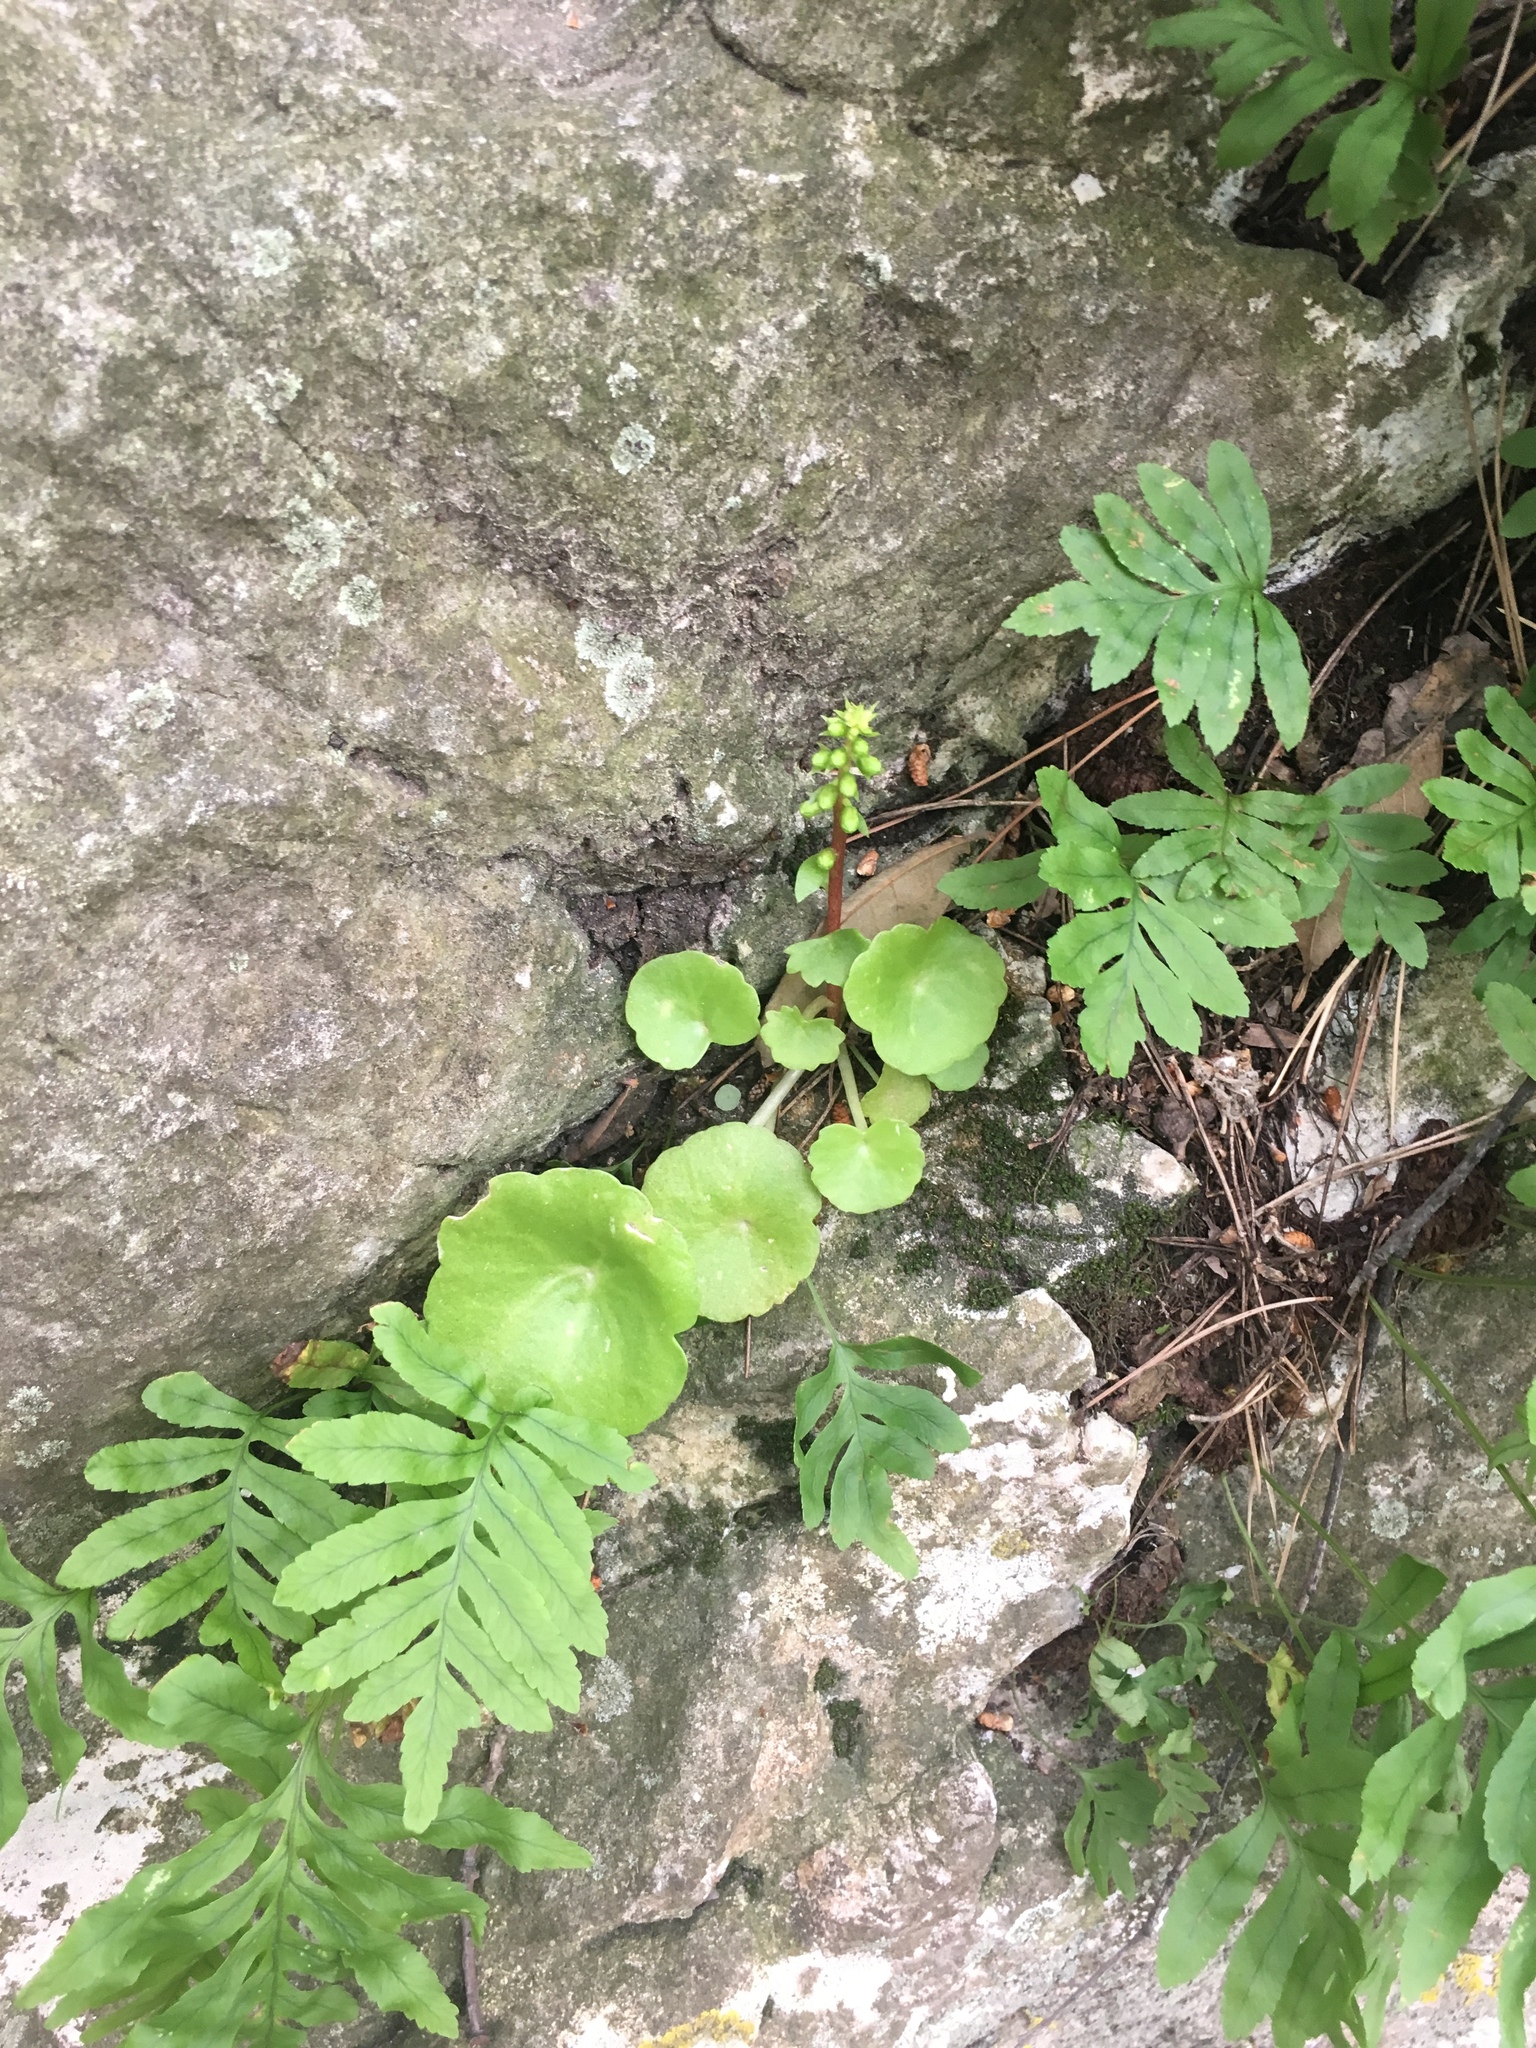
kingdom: Plantae
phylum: Tracheophyta
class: Magnoliopsida
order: Saxifragales
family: Crassulaceae
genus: Umbilicus
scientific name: Umbilicus rupestris
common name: Navelwort
